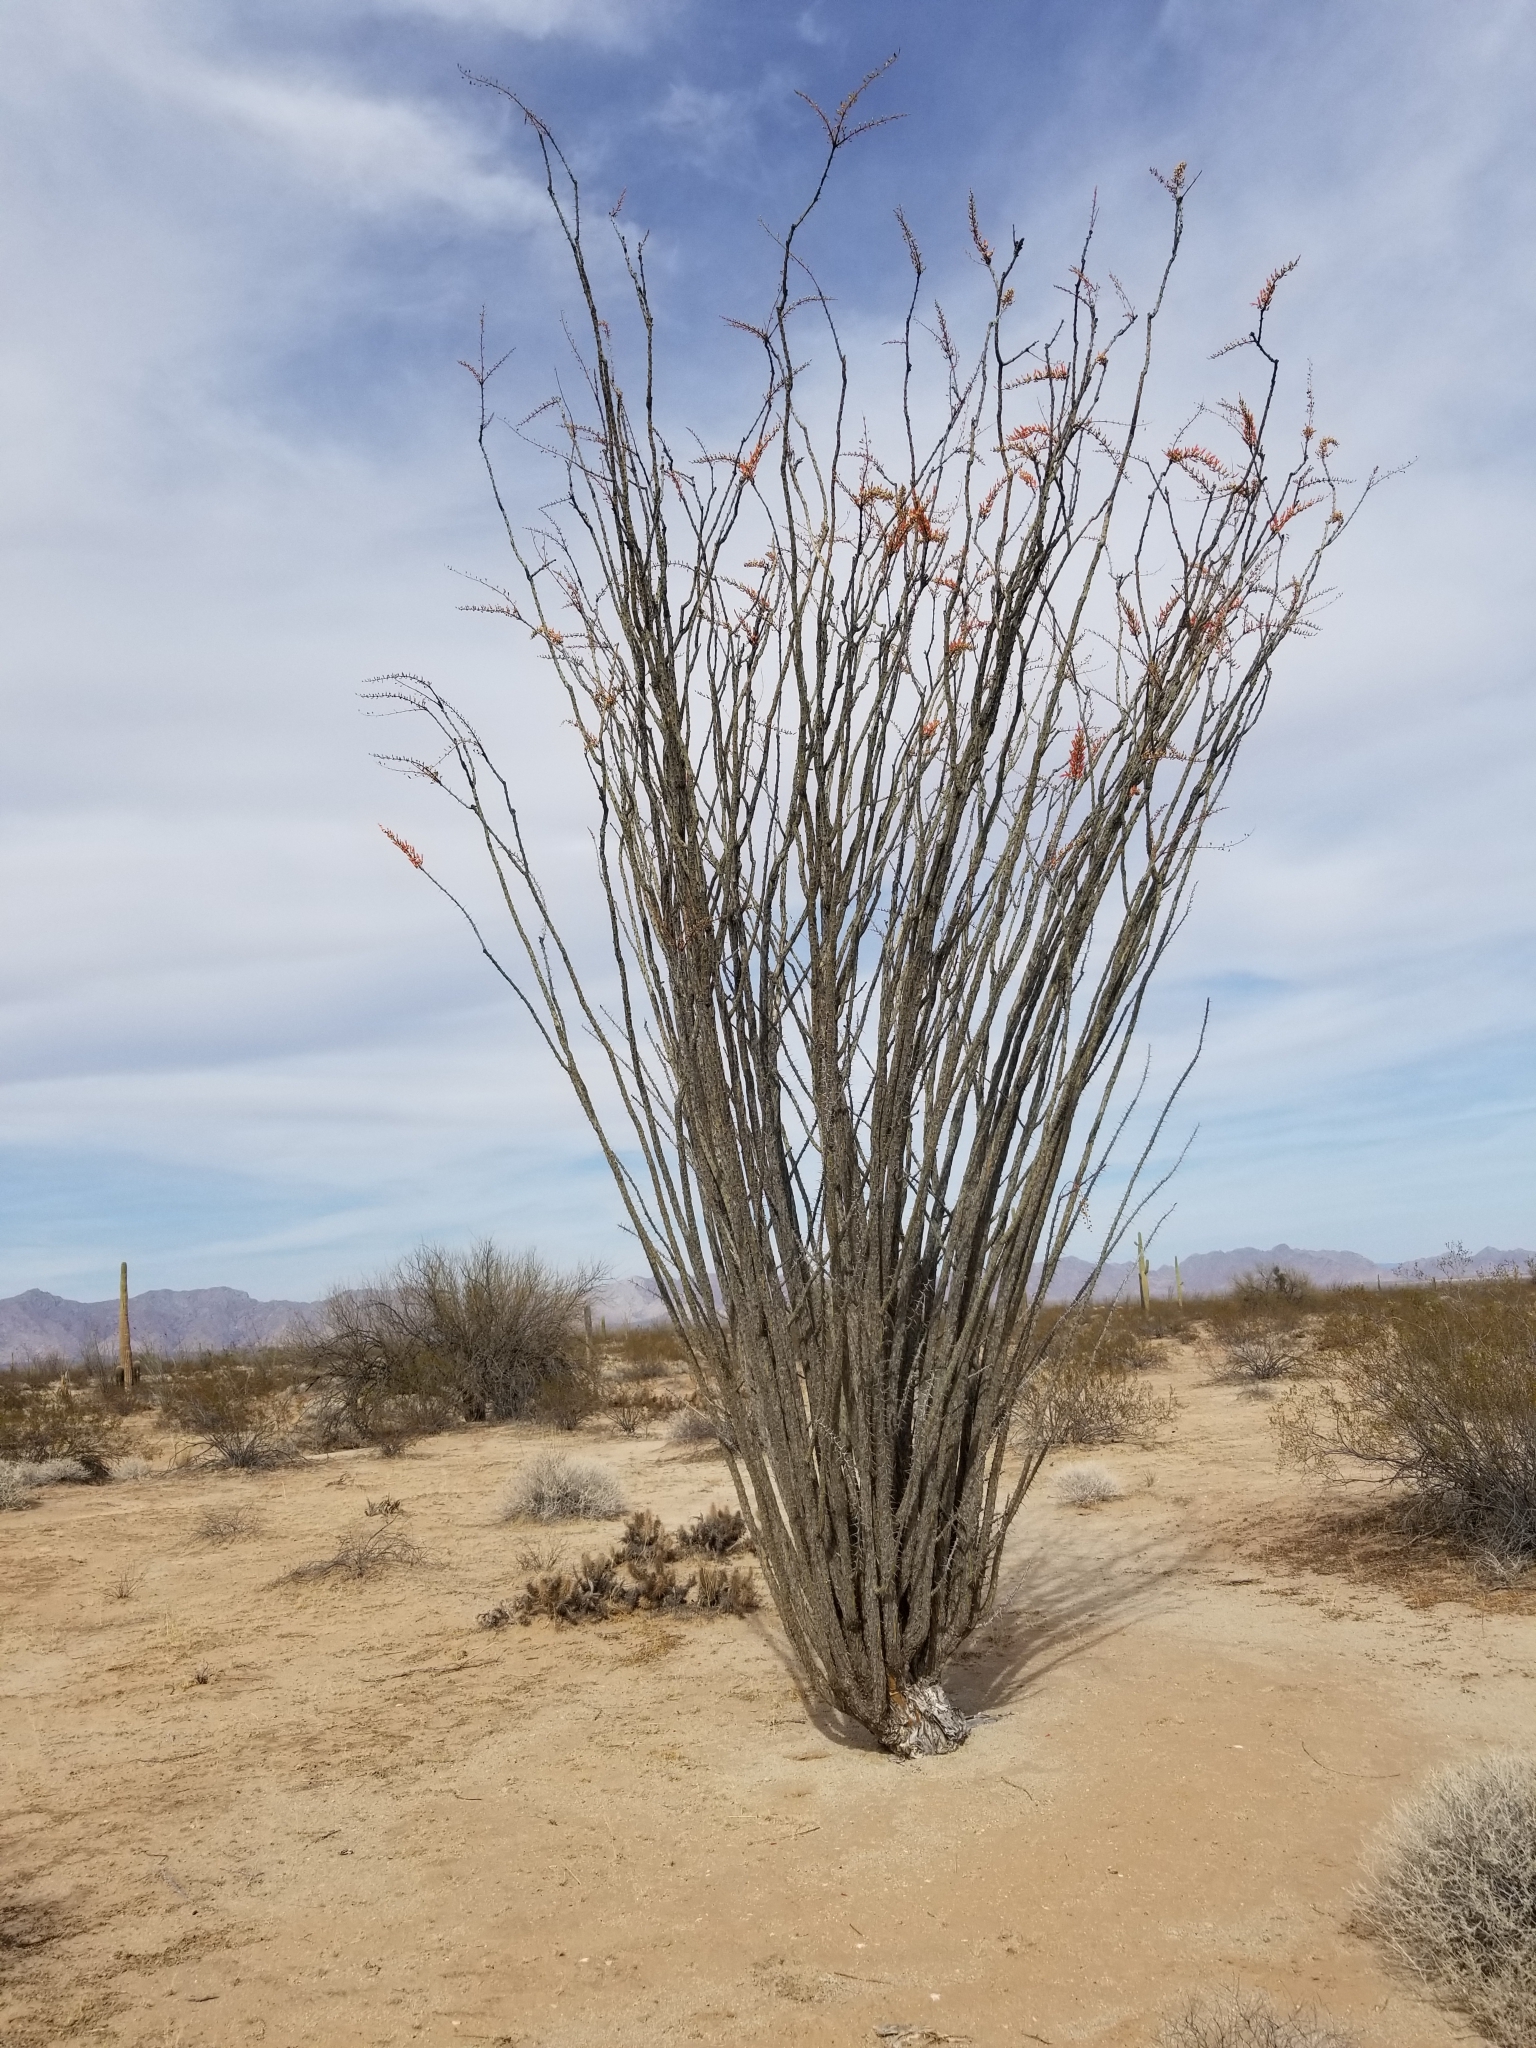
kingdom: Plantae
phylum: Tracheophyta
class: Magnoliopsida
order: Ericales
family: Fouquieriaceae
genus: Fouquieria
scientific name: Fouquieria splendens
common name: Vine-cactus
